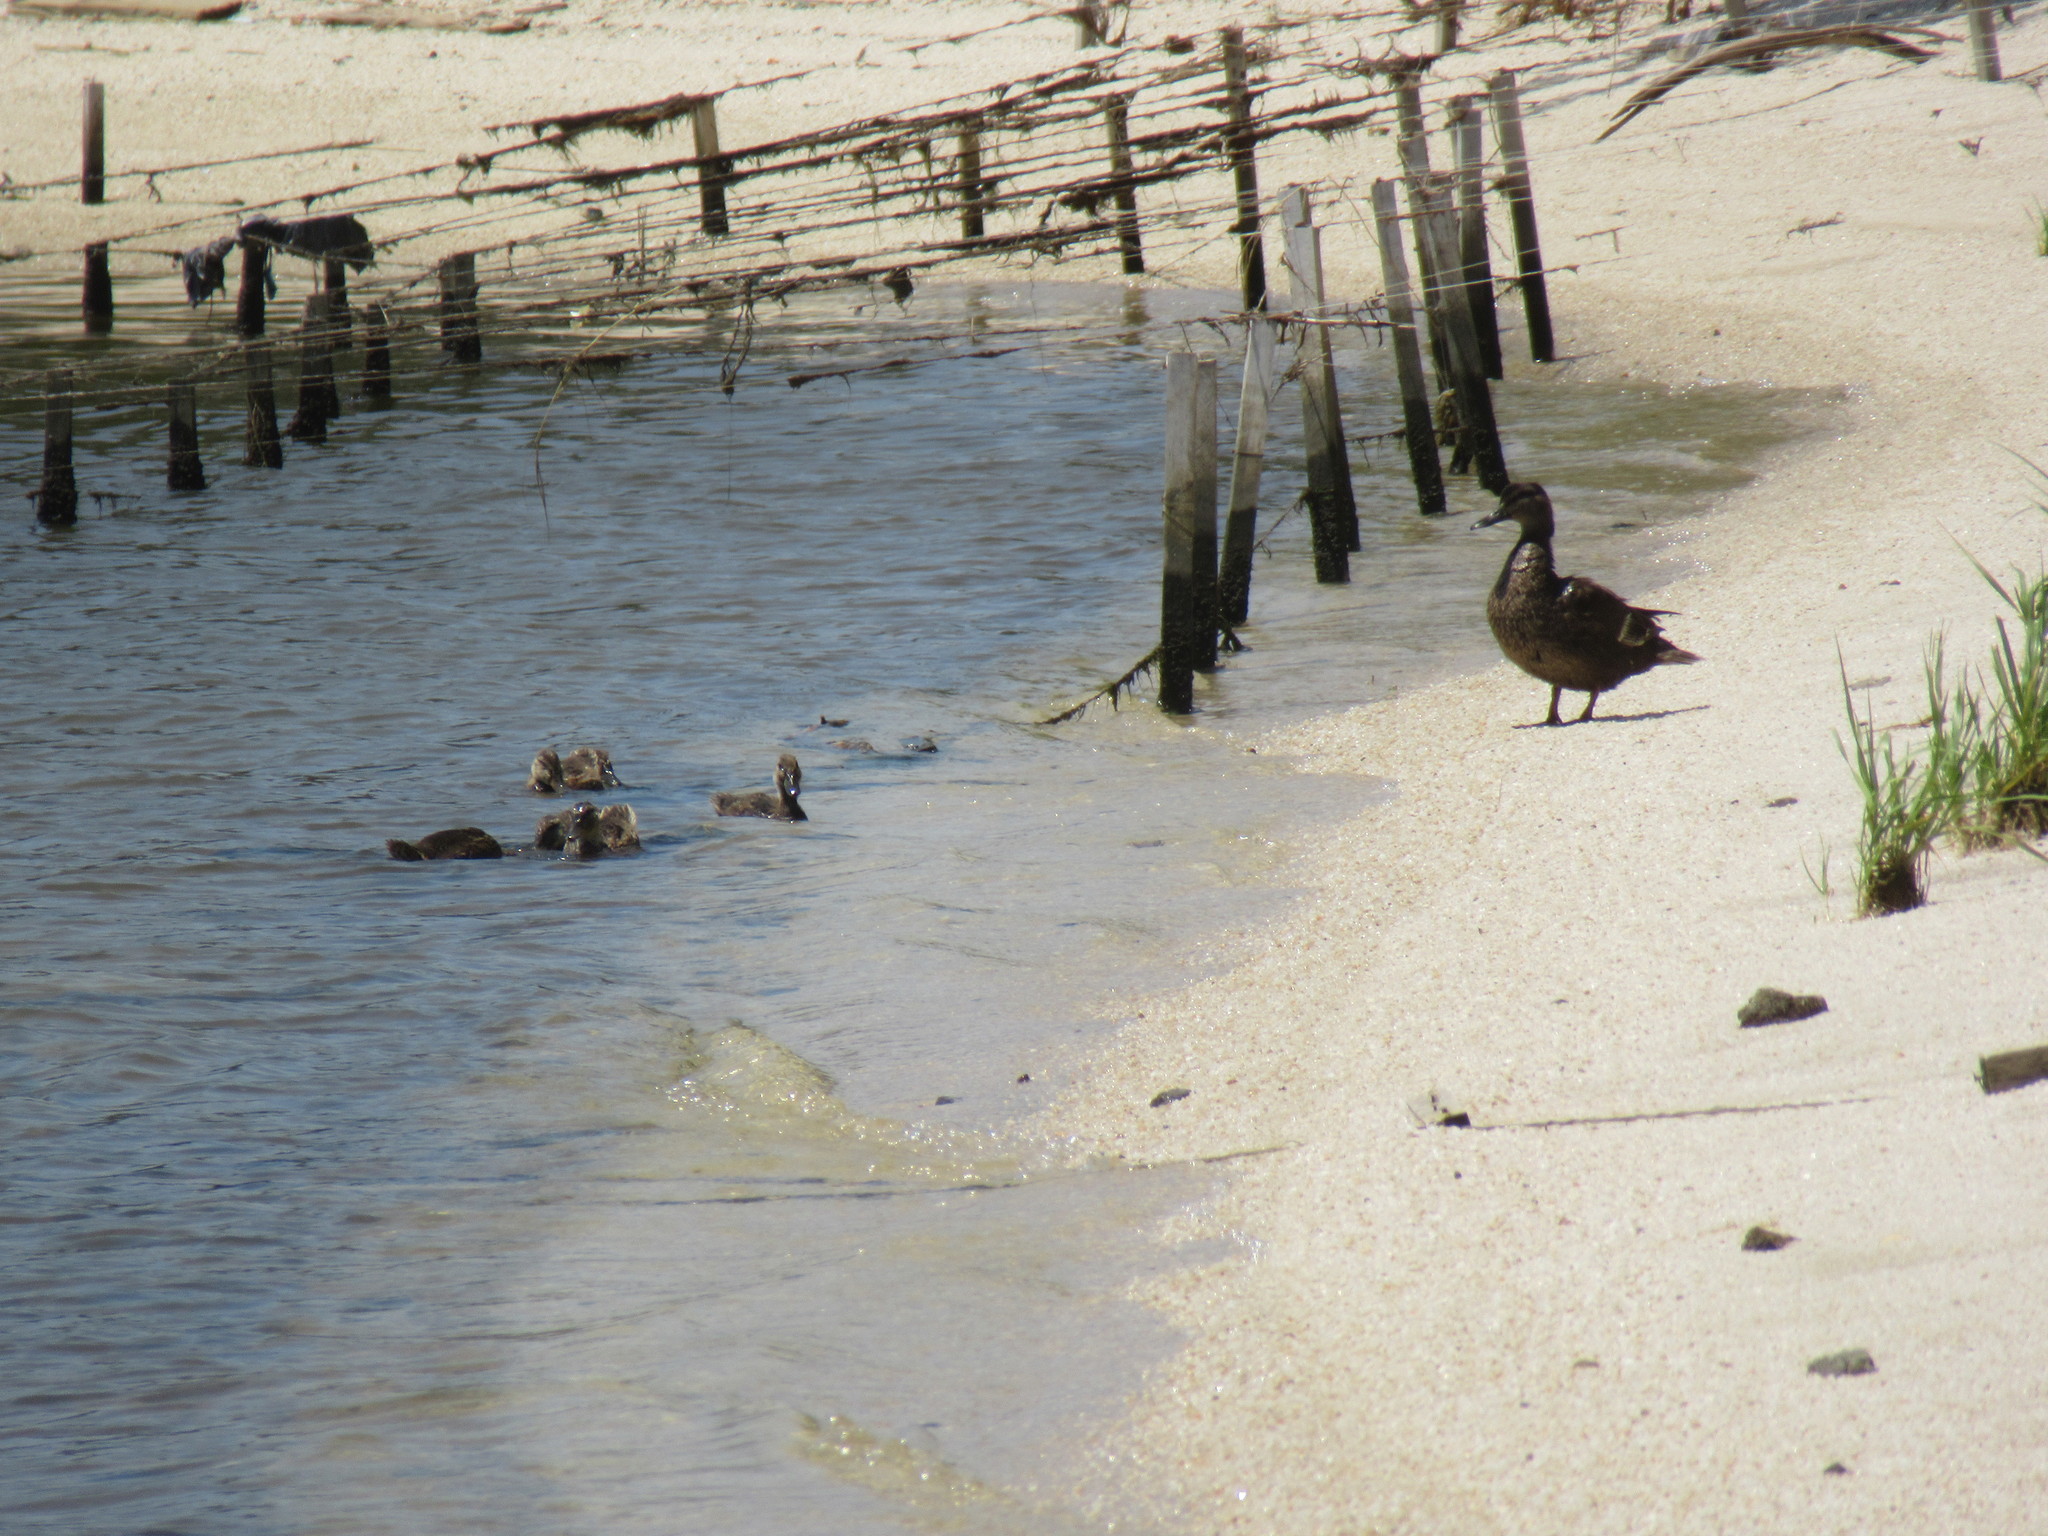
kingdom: Animalia
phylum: Chordata
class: Aves
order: Anseriformes
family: Anatidae
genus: Anas
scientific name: Anas platyrhynchos
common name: Mallard
